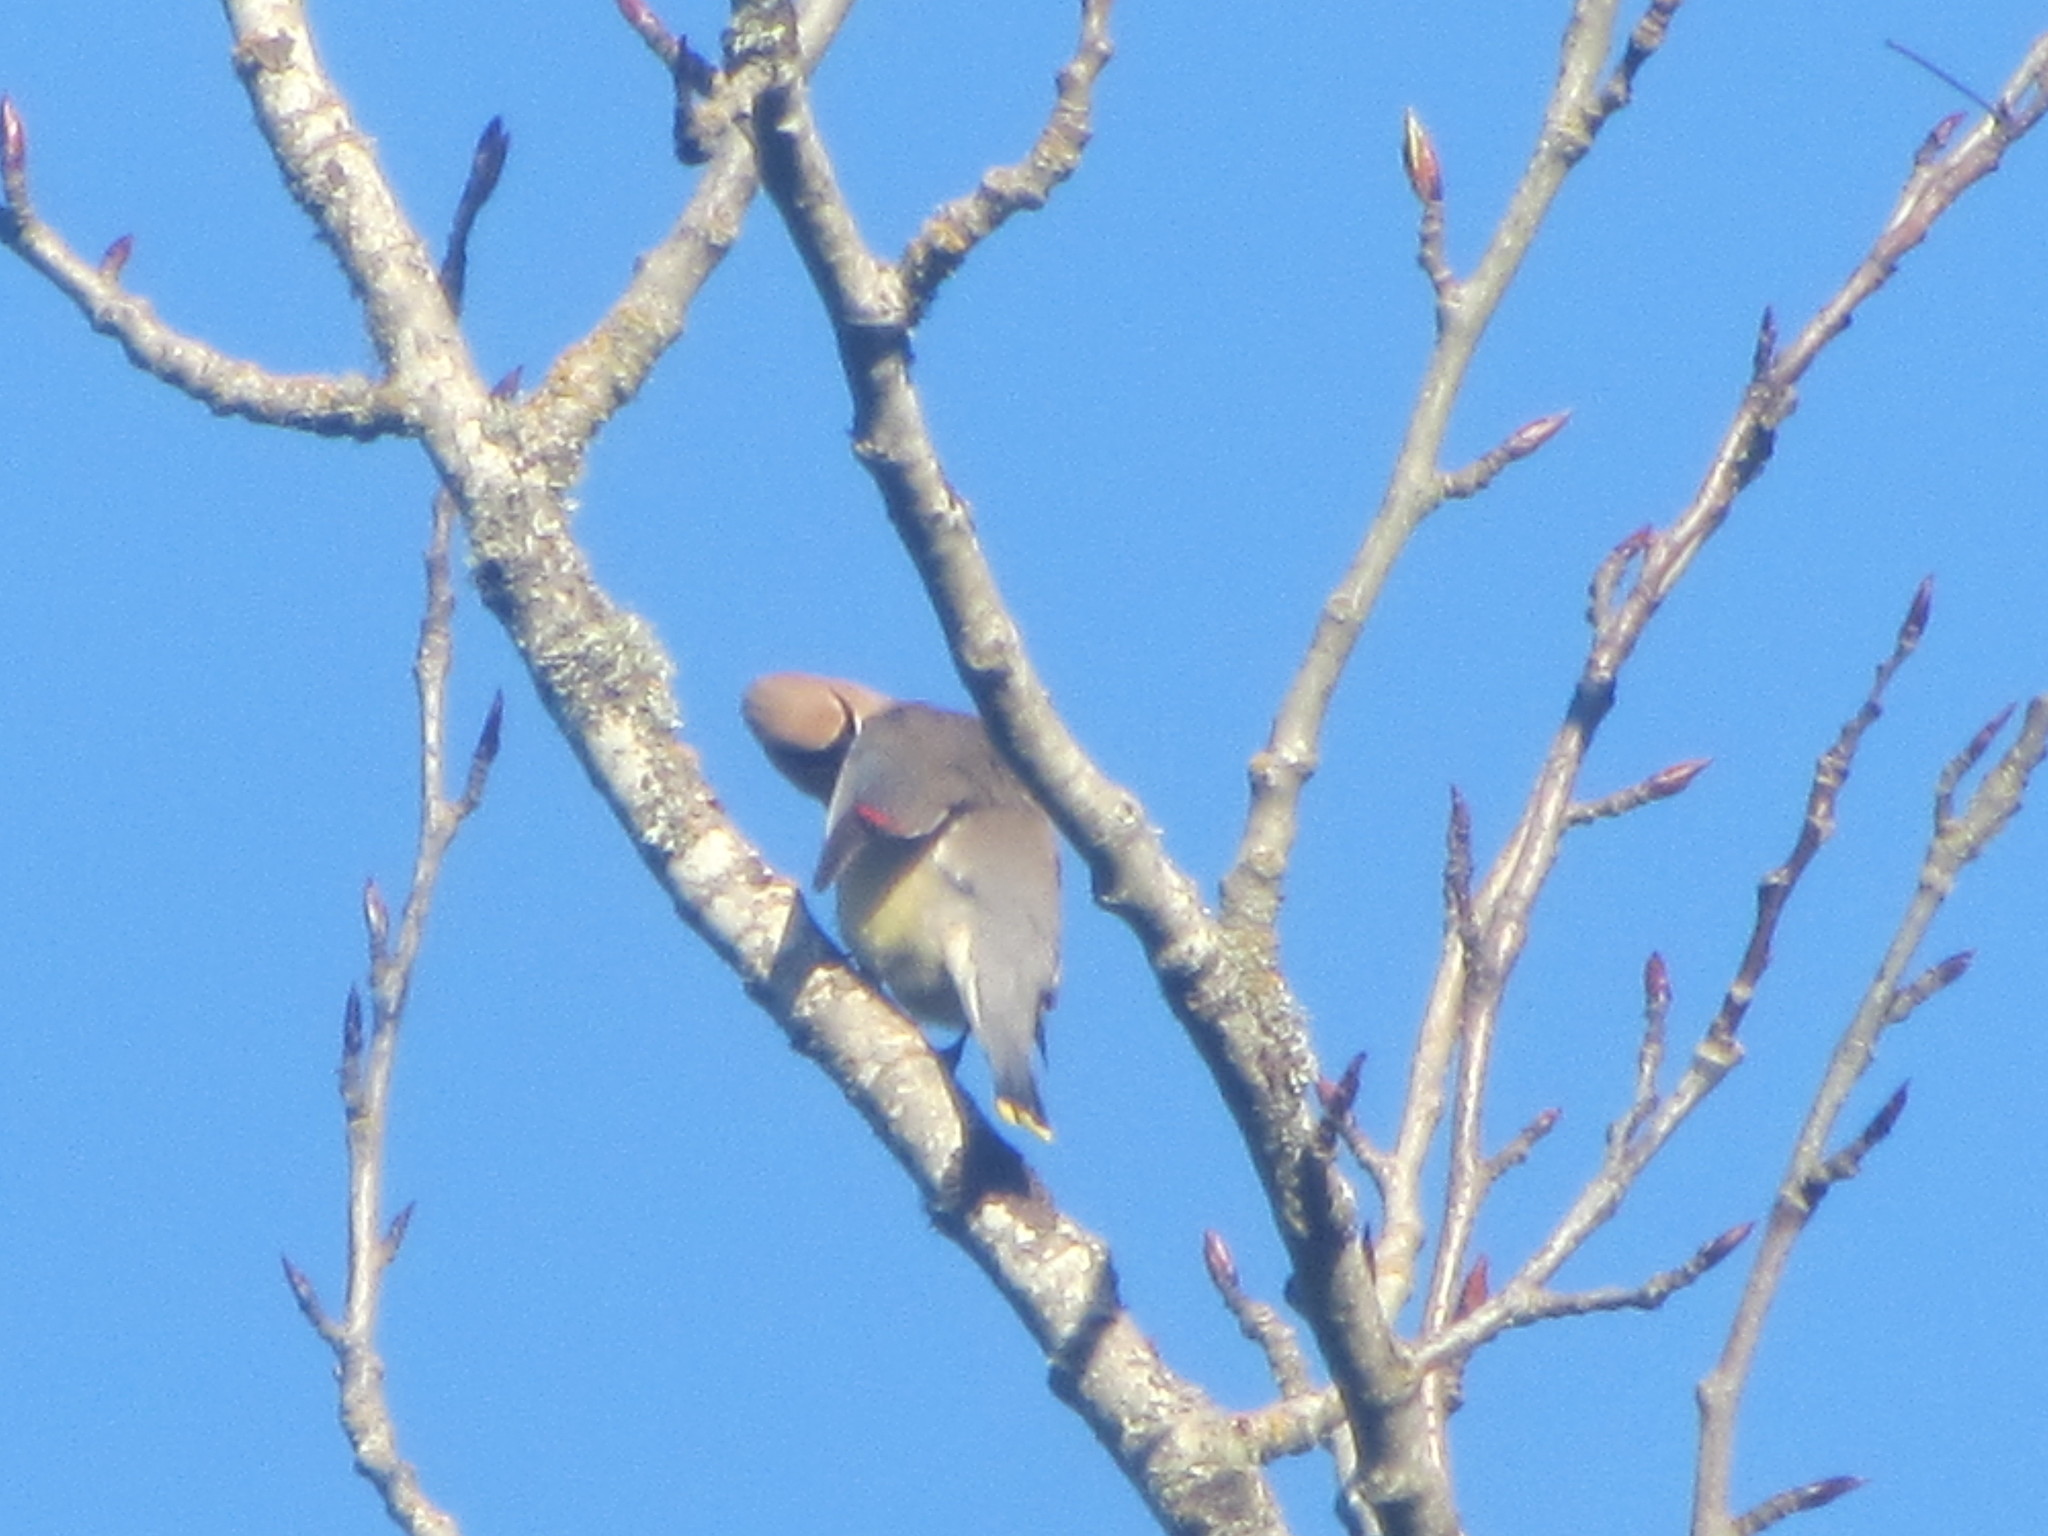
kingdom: Animalia
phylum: Chordata
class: Aves
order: Passeriformes
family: Bombycillidae
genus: Bombycilla
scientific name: Bombycilla cedrorum
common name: Cedar waxwing
